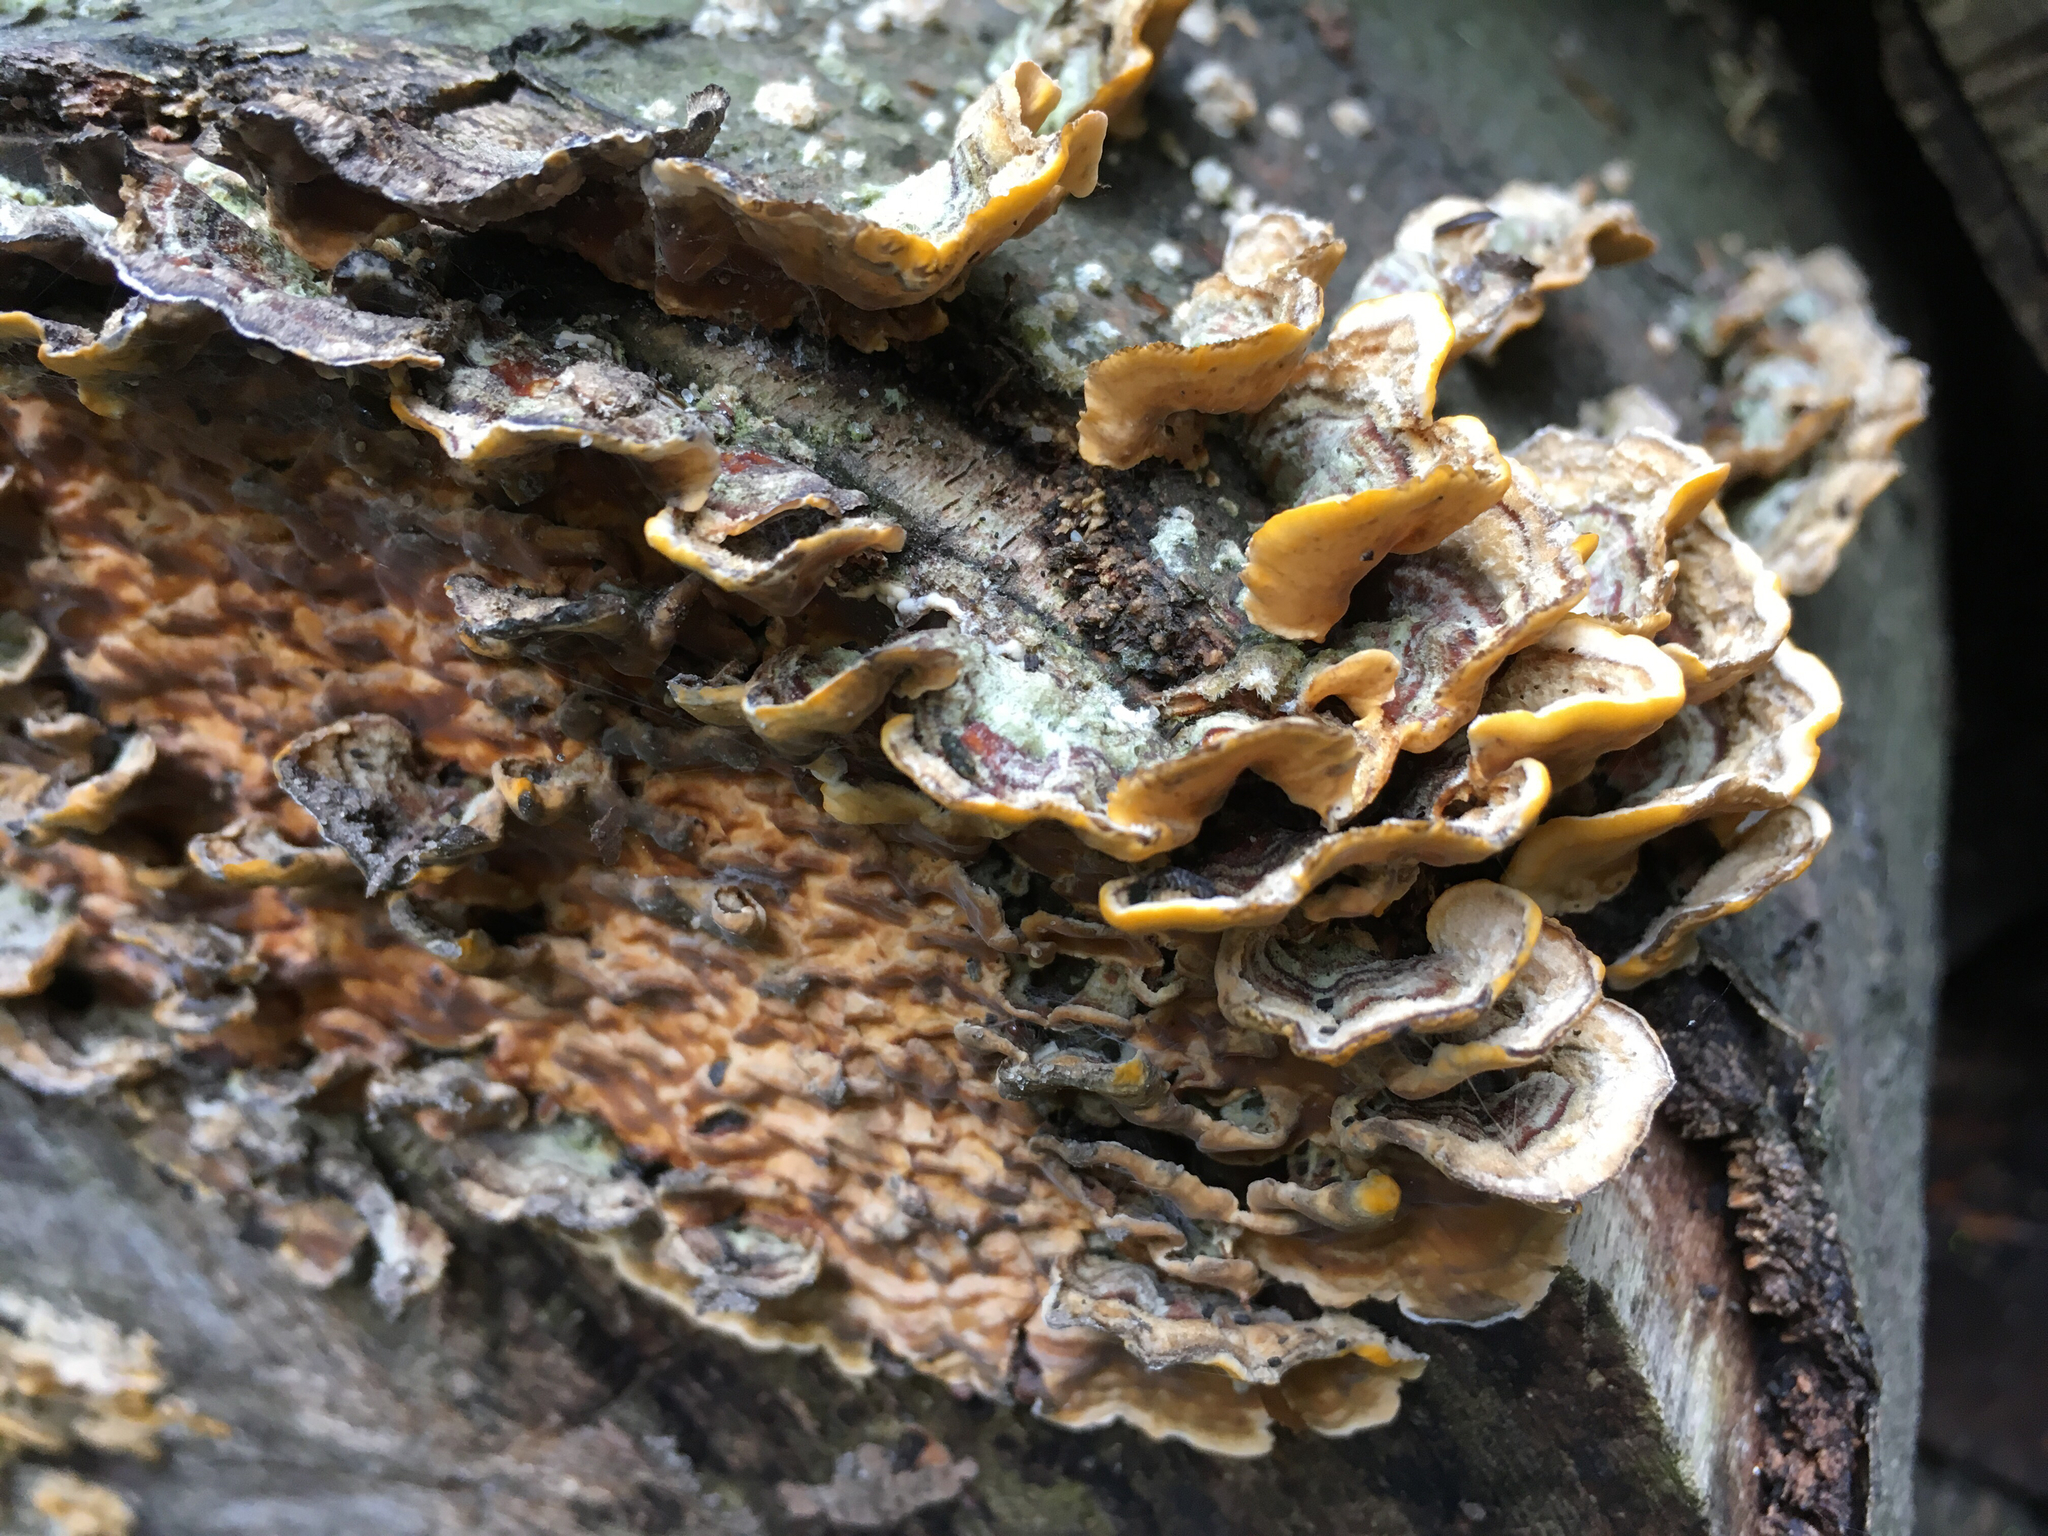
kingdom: Fungi
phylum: Basidiomycota
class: Agaricomycetes
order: Russulales
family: Stereaceae
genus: Stereum
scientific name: Stereum hirsutum
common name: Hairy curtain crust
